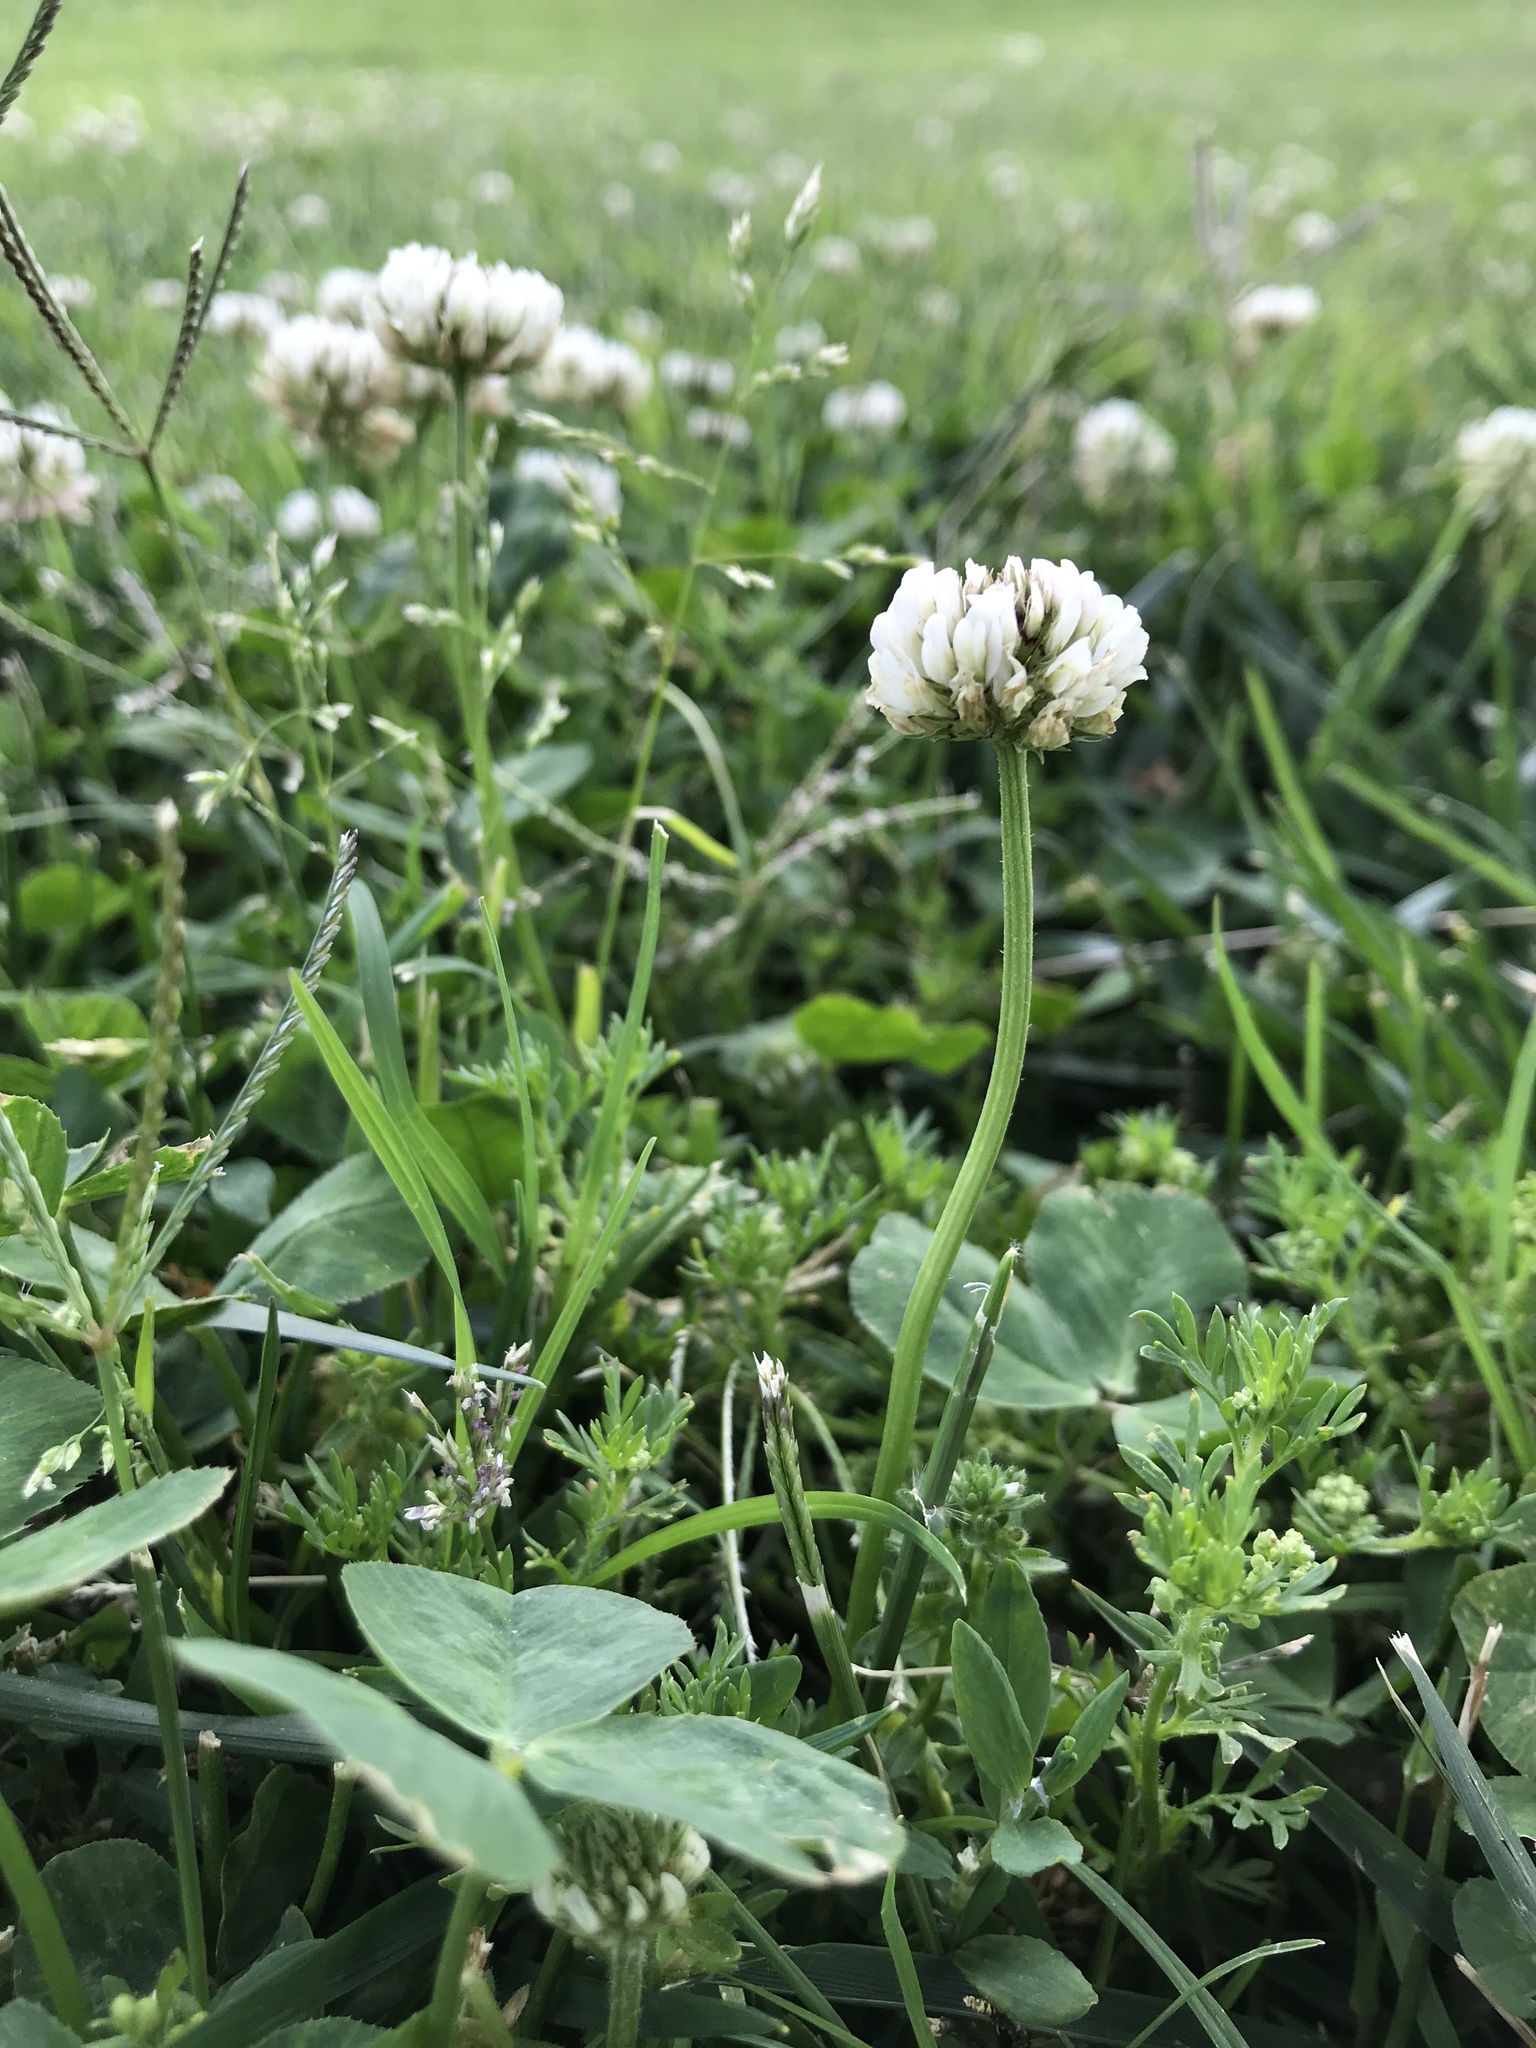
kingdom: Plantae
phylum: Tracheophyta
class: Magnoliopsida
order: Fabales
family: Fabaceae
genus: Trifolium
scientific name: Trifolium repens
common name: White clover
